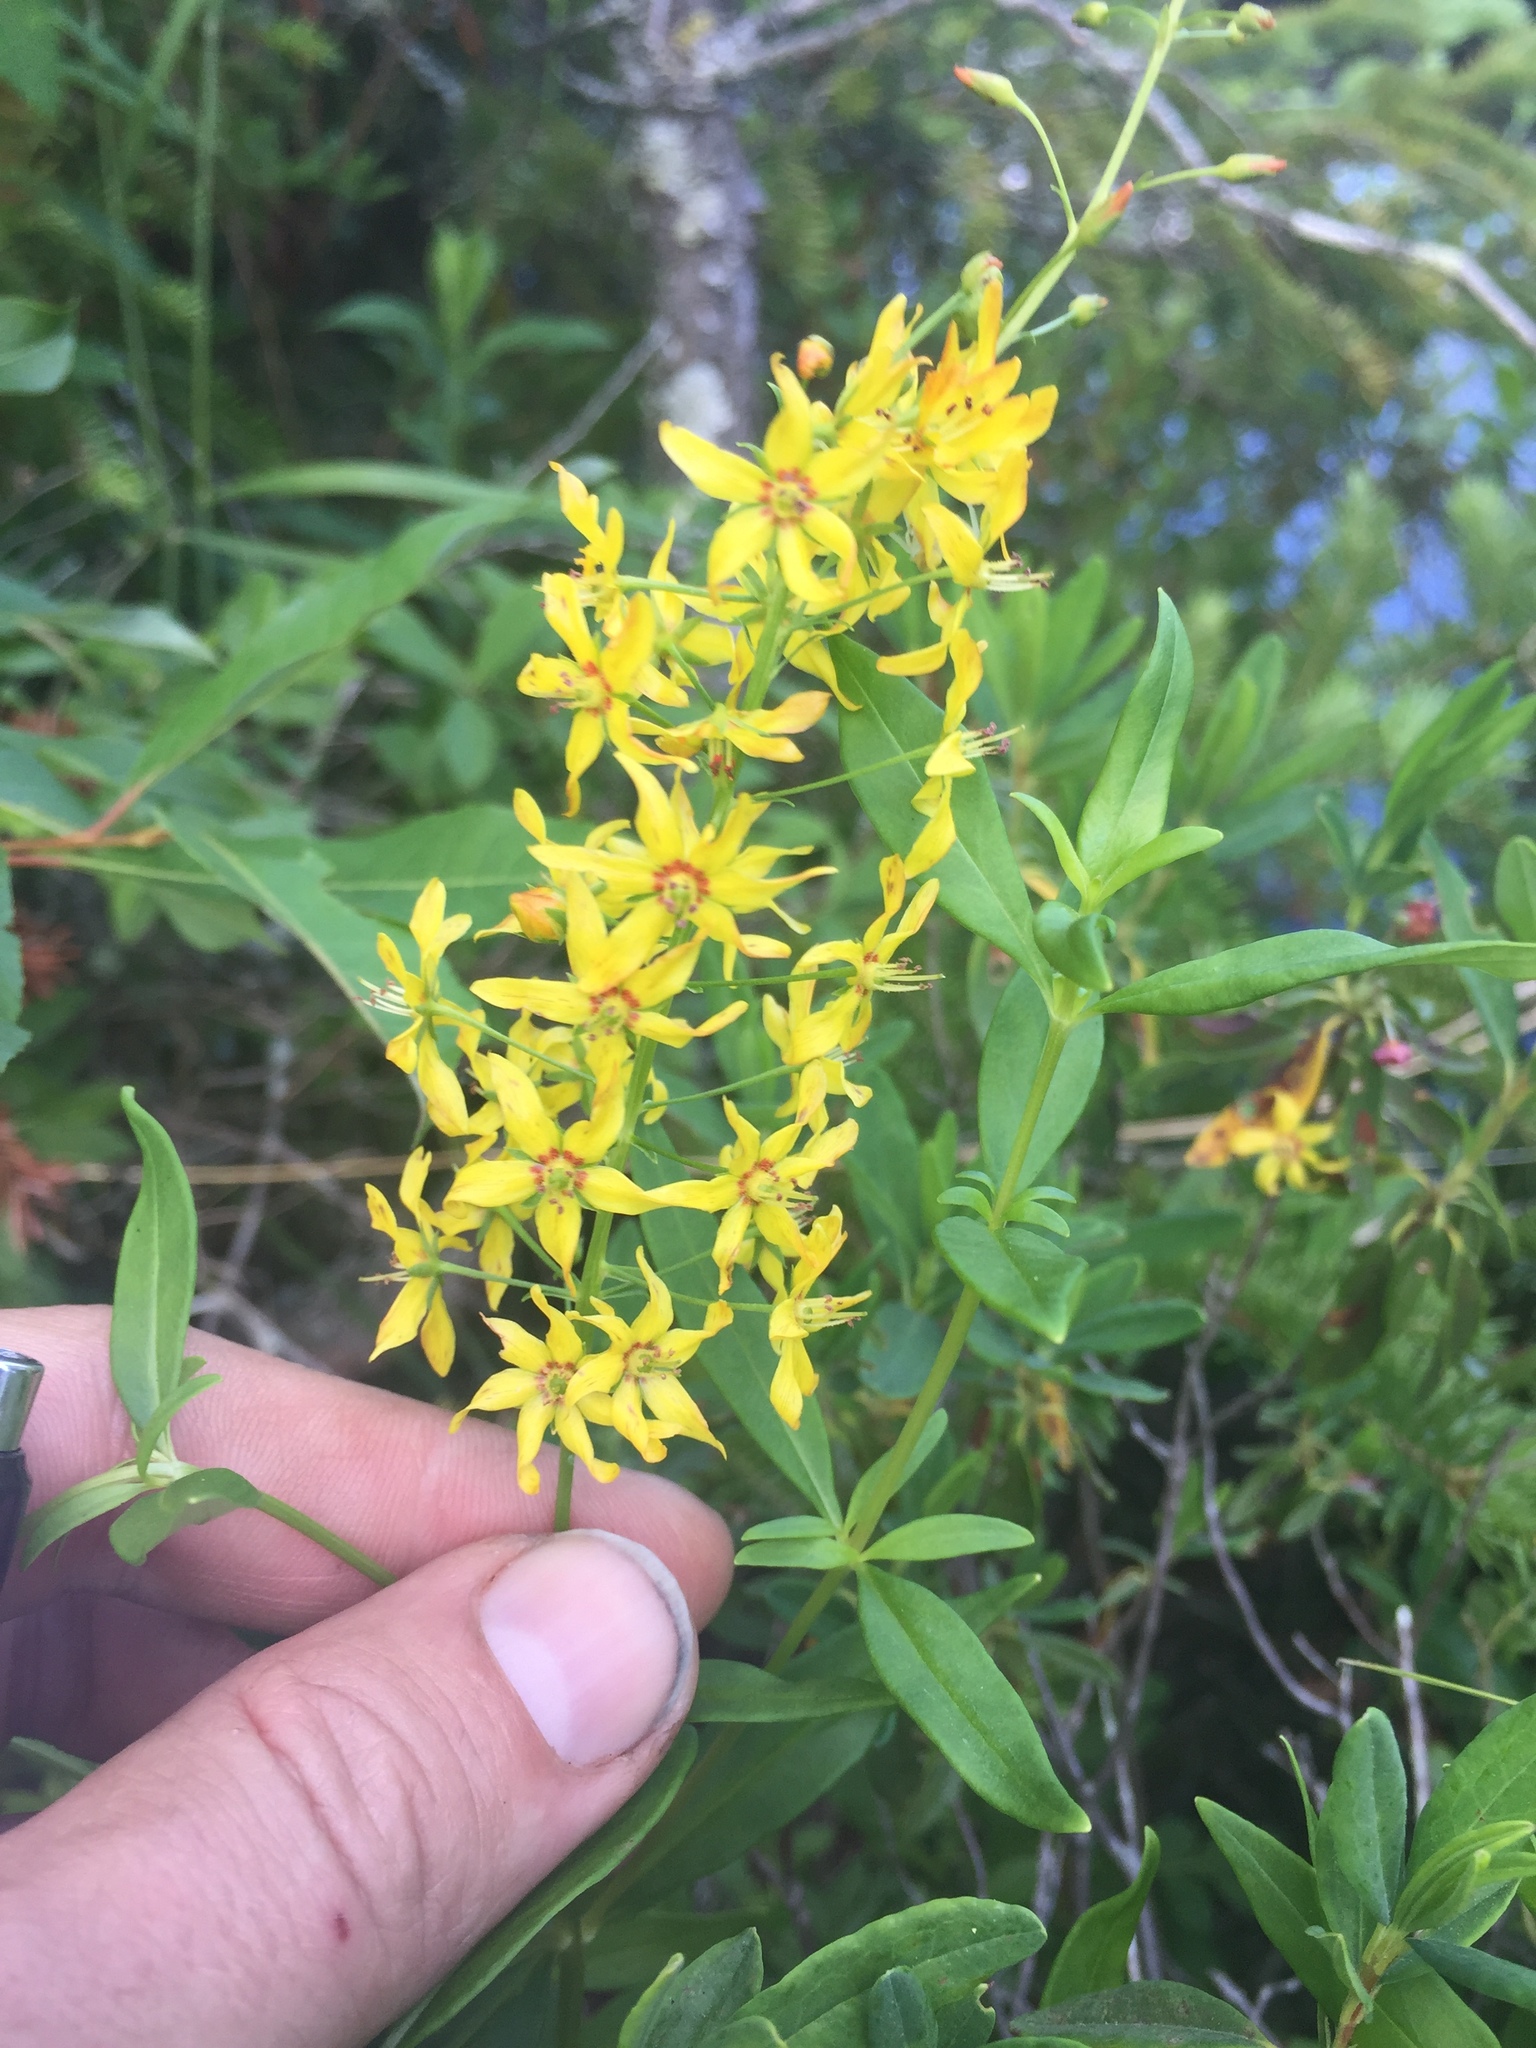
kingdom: Plantae
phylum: Tracheophyta
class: Magnoliopsida
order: Ericales
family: Primulaceae
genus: Lysimachia
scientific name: Lysimachia terrestris
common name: Lake loosestrife
